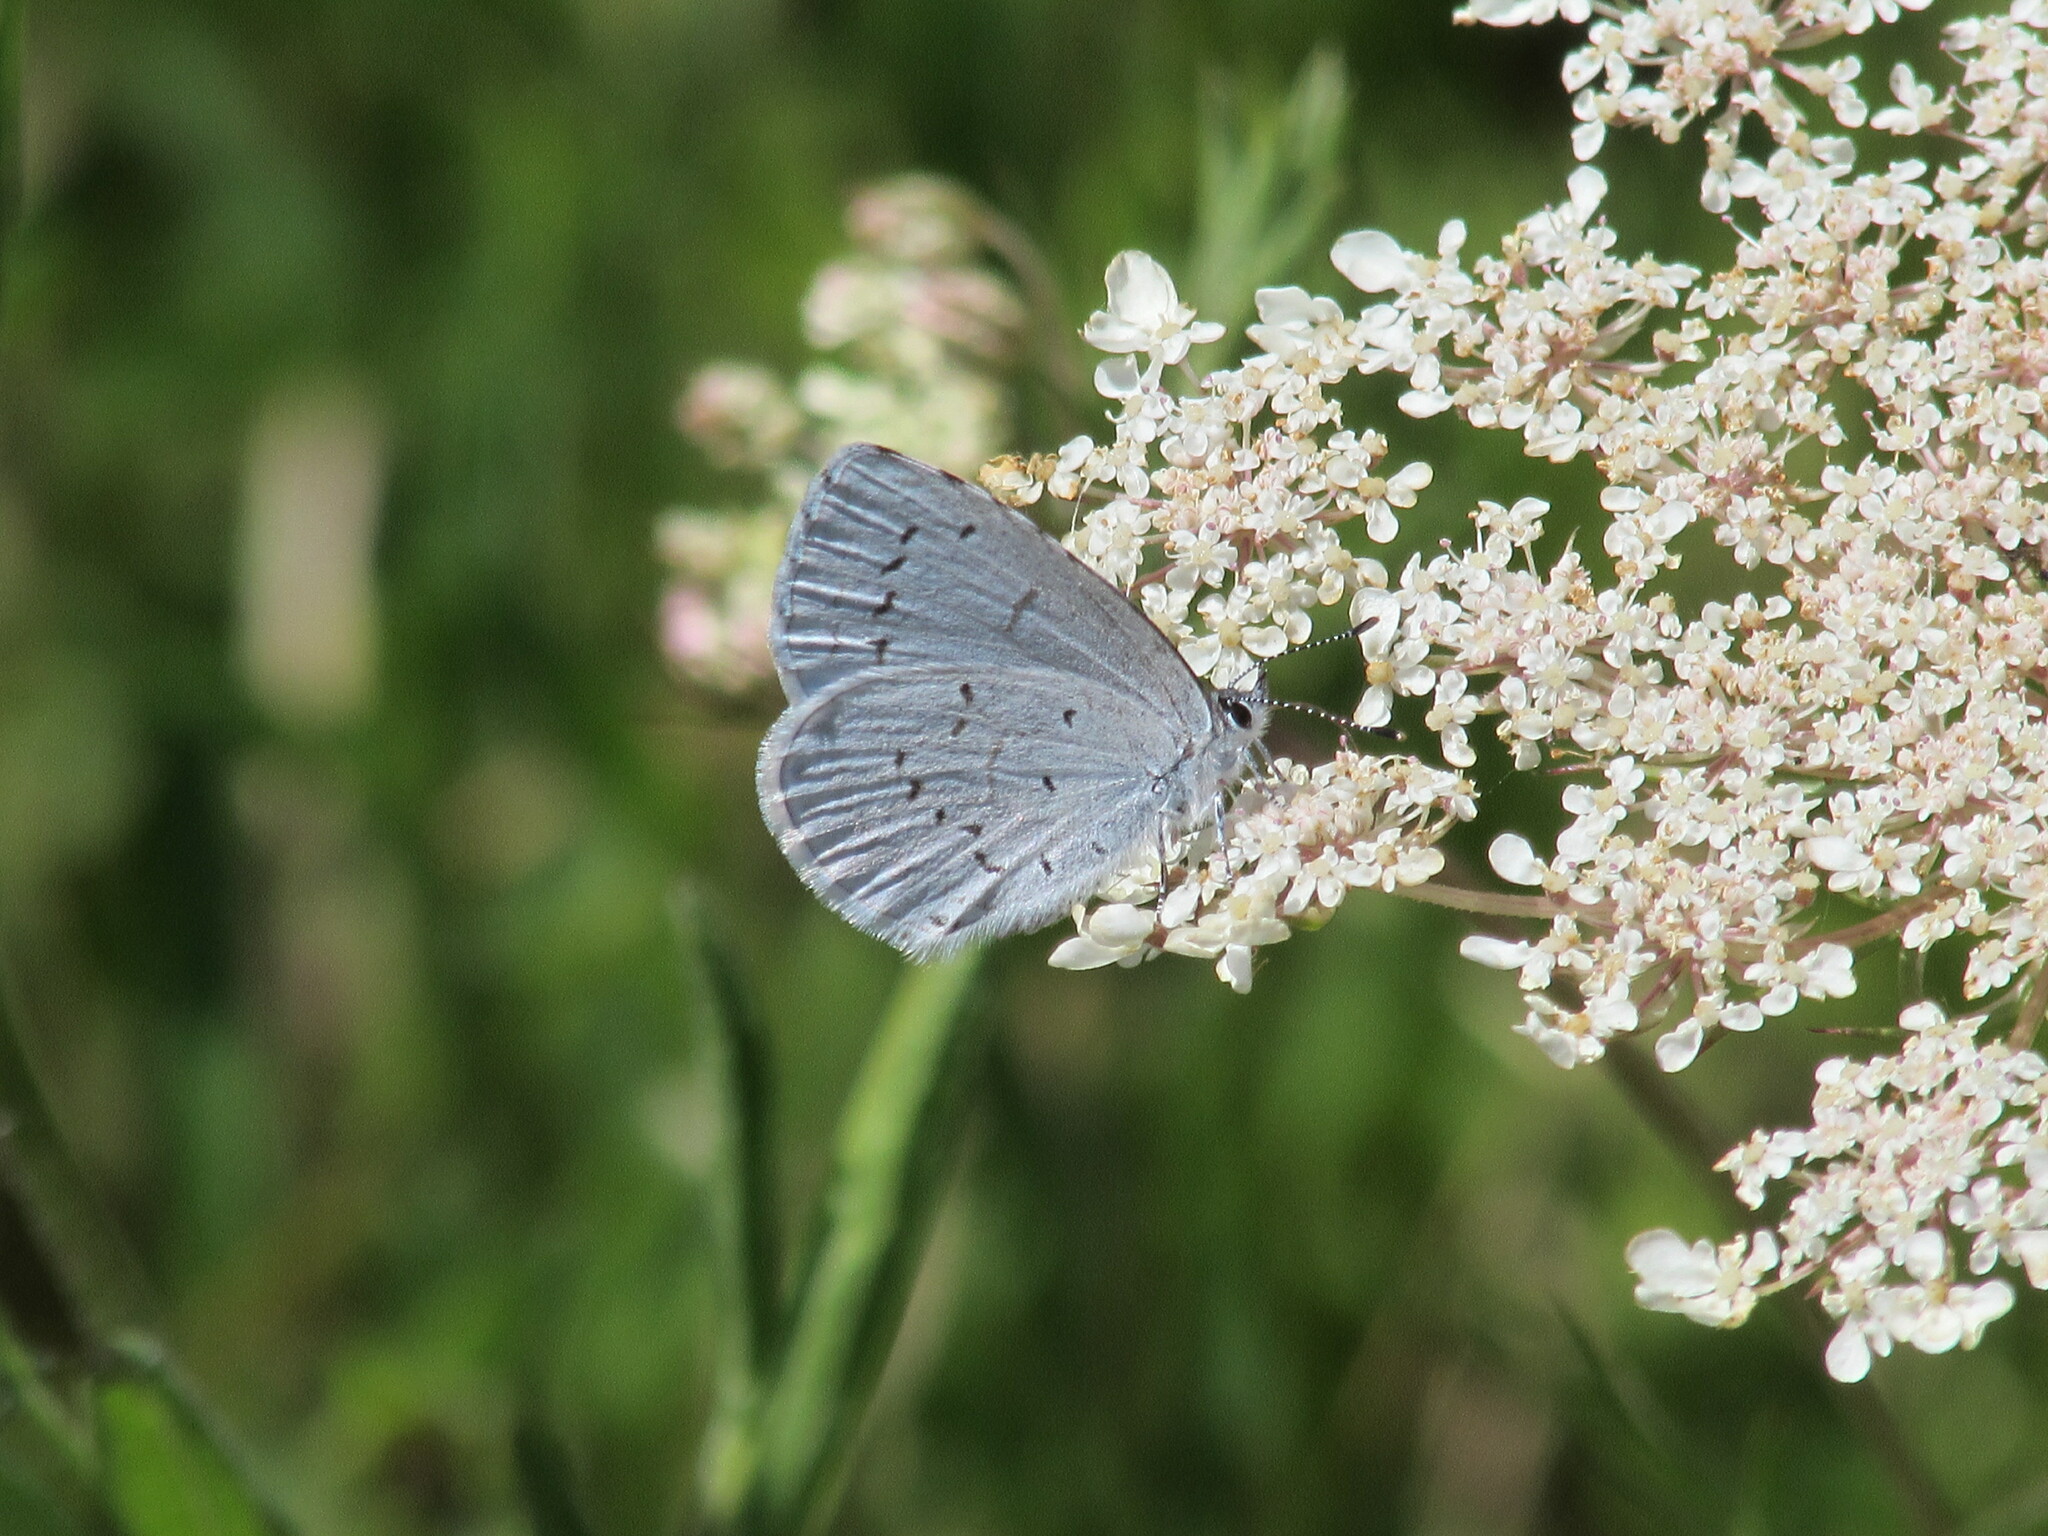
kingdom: Animalia
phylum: Arthropoda
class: Insecta
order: Lepidoptera
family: Lycaenidae
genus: Celastrina
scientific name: Celastrina ladon
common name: Spring azure
